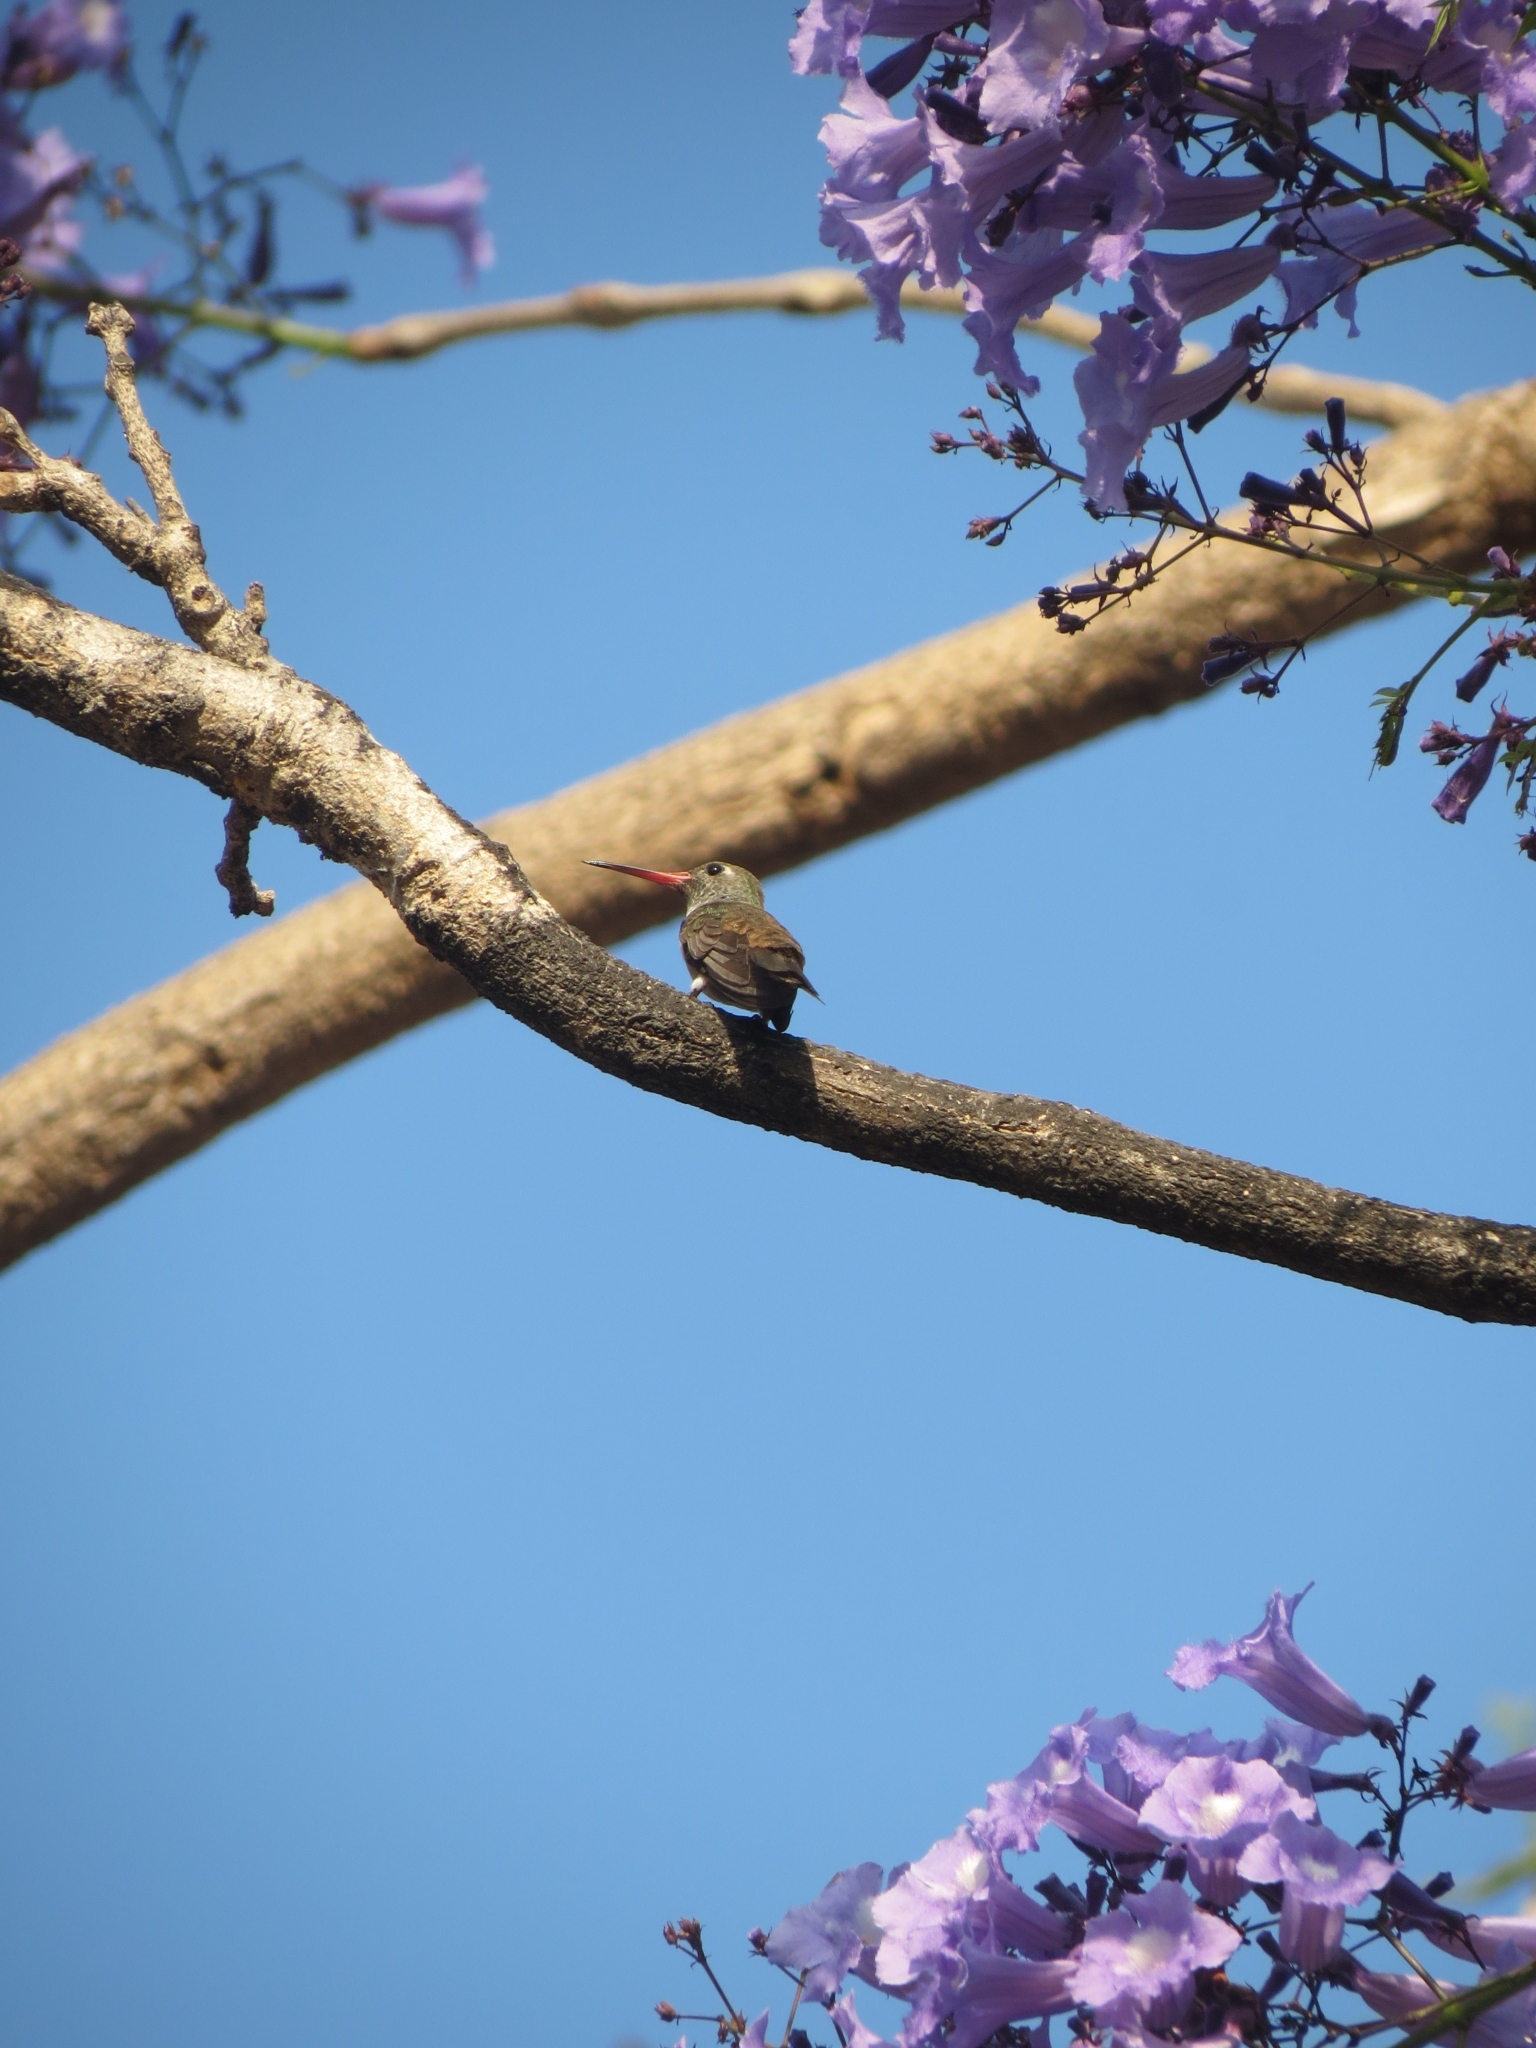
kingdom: Animalia
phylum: Chordata
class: Aves
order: Apodiformes
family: Trochilidae
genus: Amazilis
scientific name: Amazilis amazilia
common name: Amazilia hummingbird
